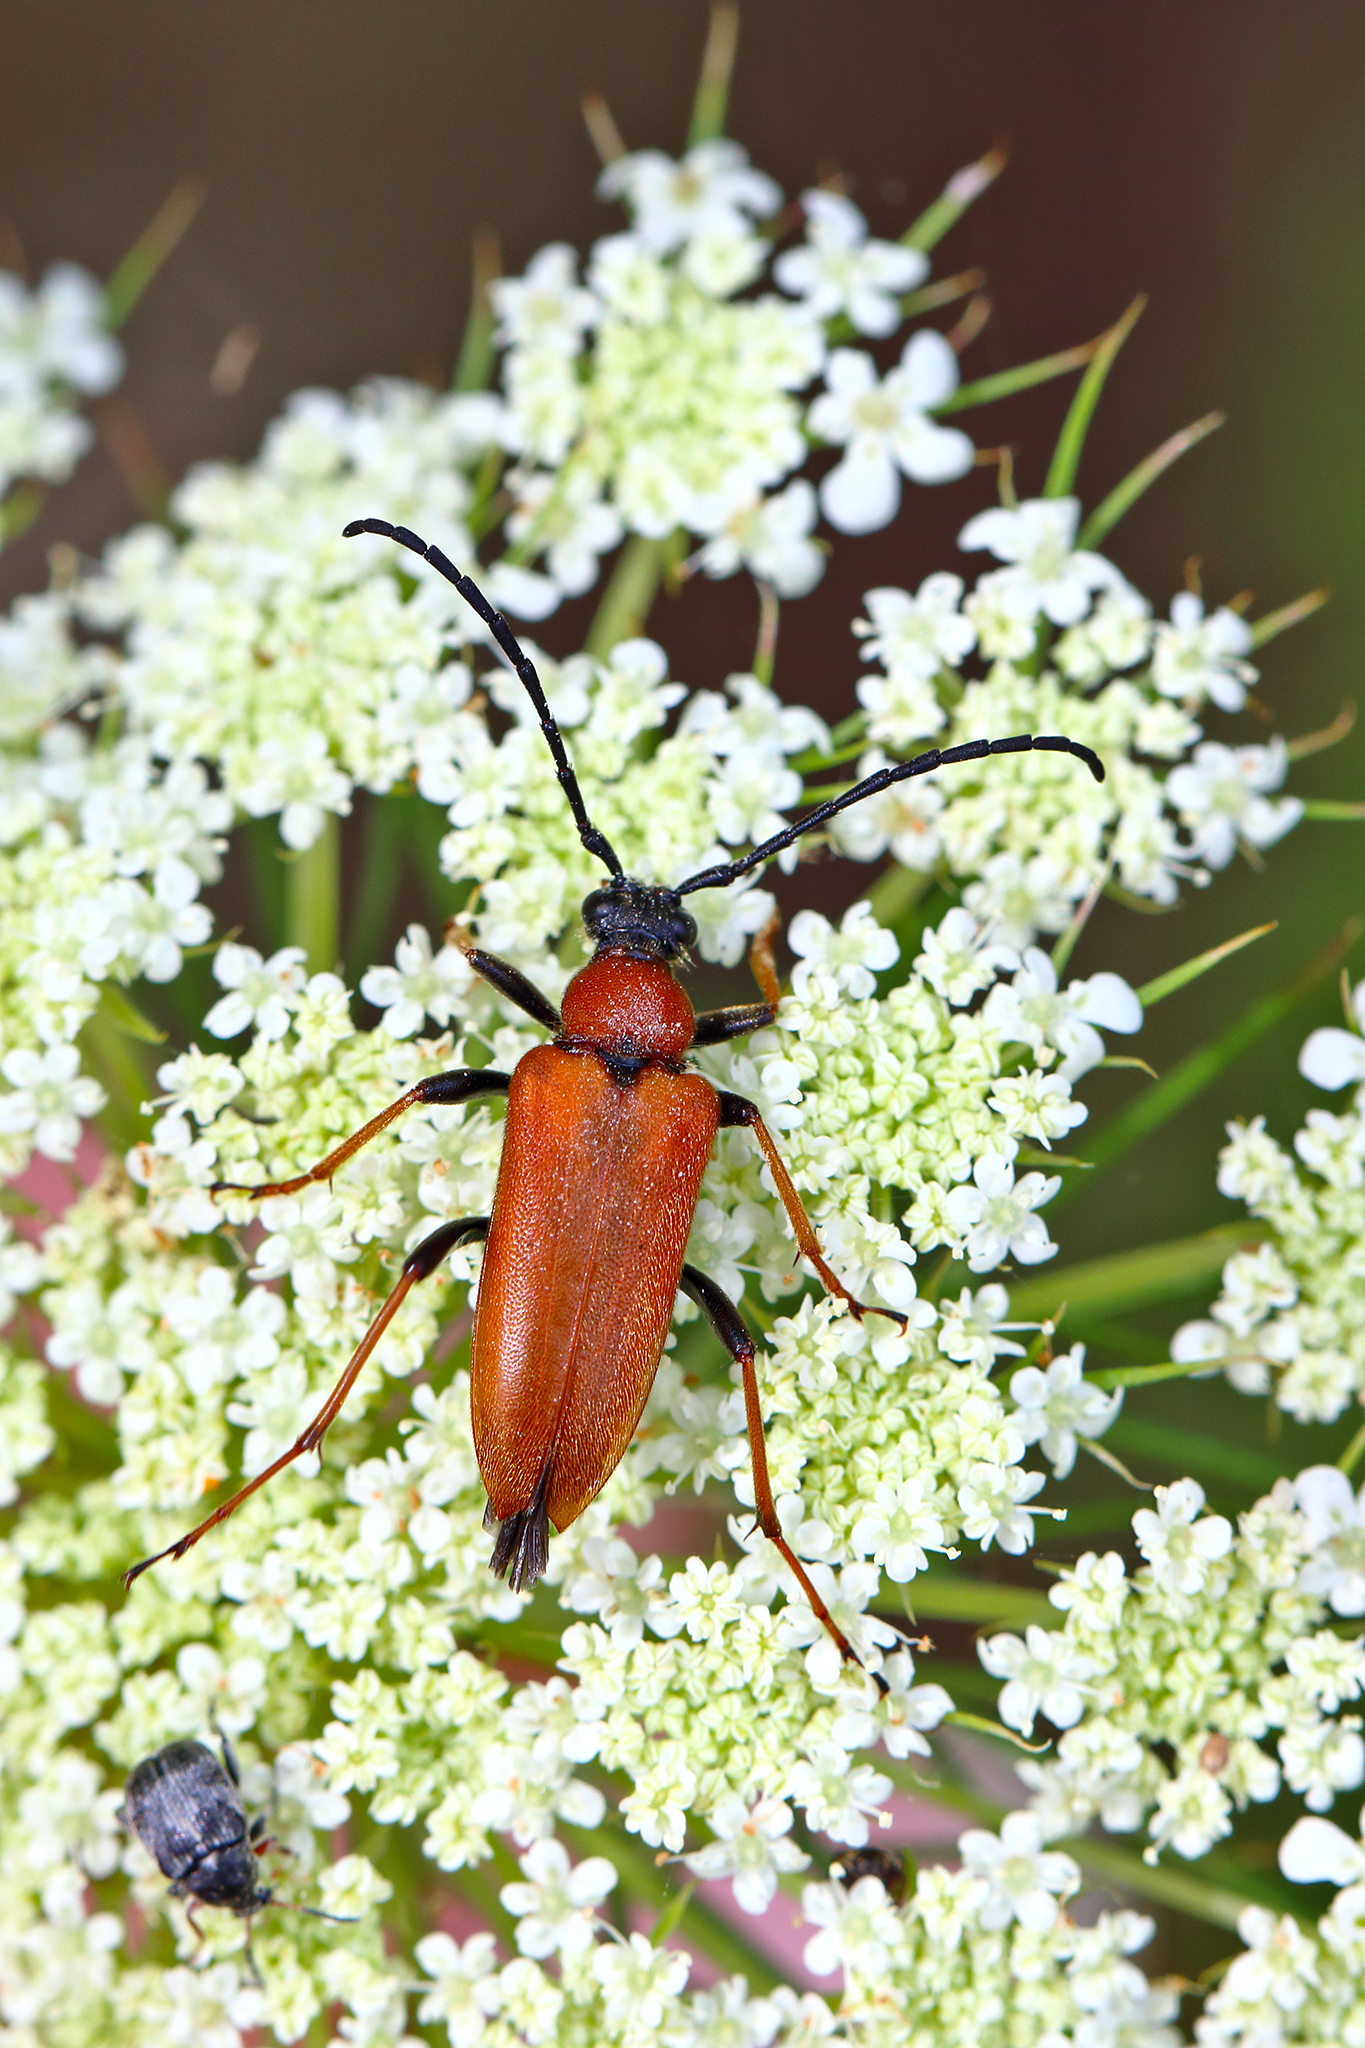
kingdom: Animalia
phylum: Arthropoda
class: Insecta
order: Coleoptera
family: Cerambycidae
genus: Stictoleptura
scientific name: Stictoleptura rubra
